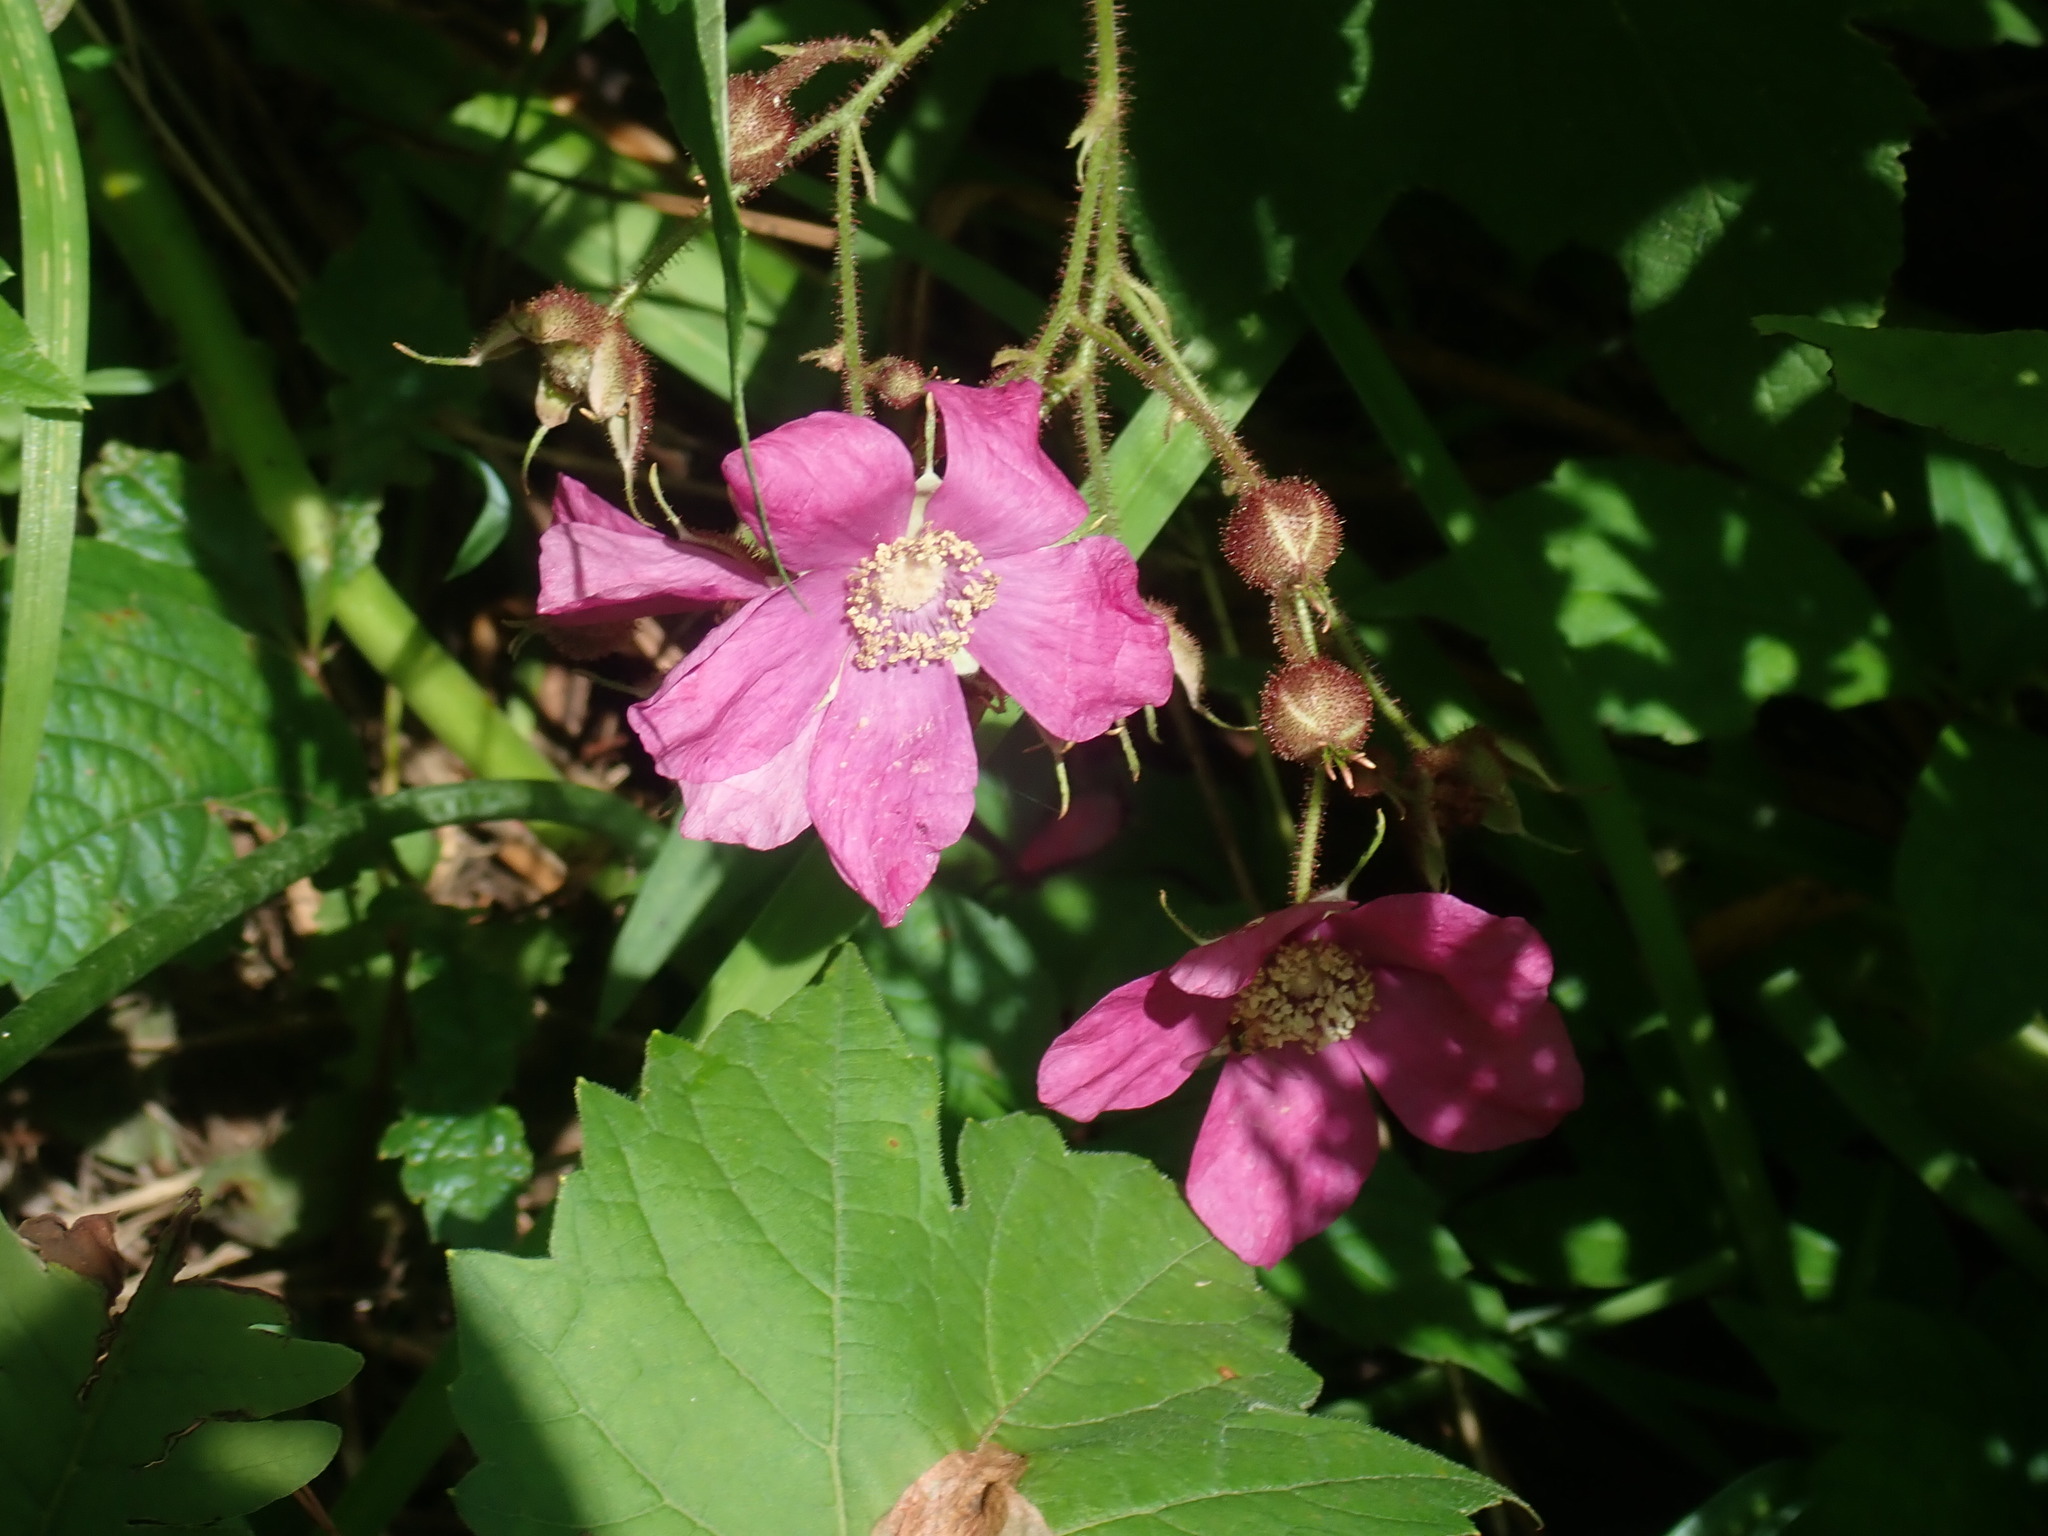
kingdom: Plantae
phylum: Tracheophyta
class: Magnoliopsida
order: Rosales
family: Rosaceae
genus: Rubus
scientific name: Rubus odoratus
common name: Purple-flowered raspberry
